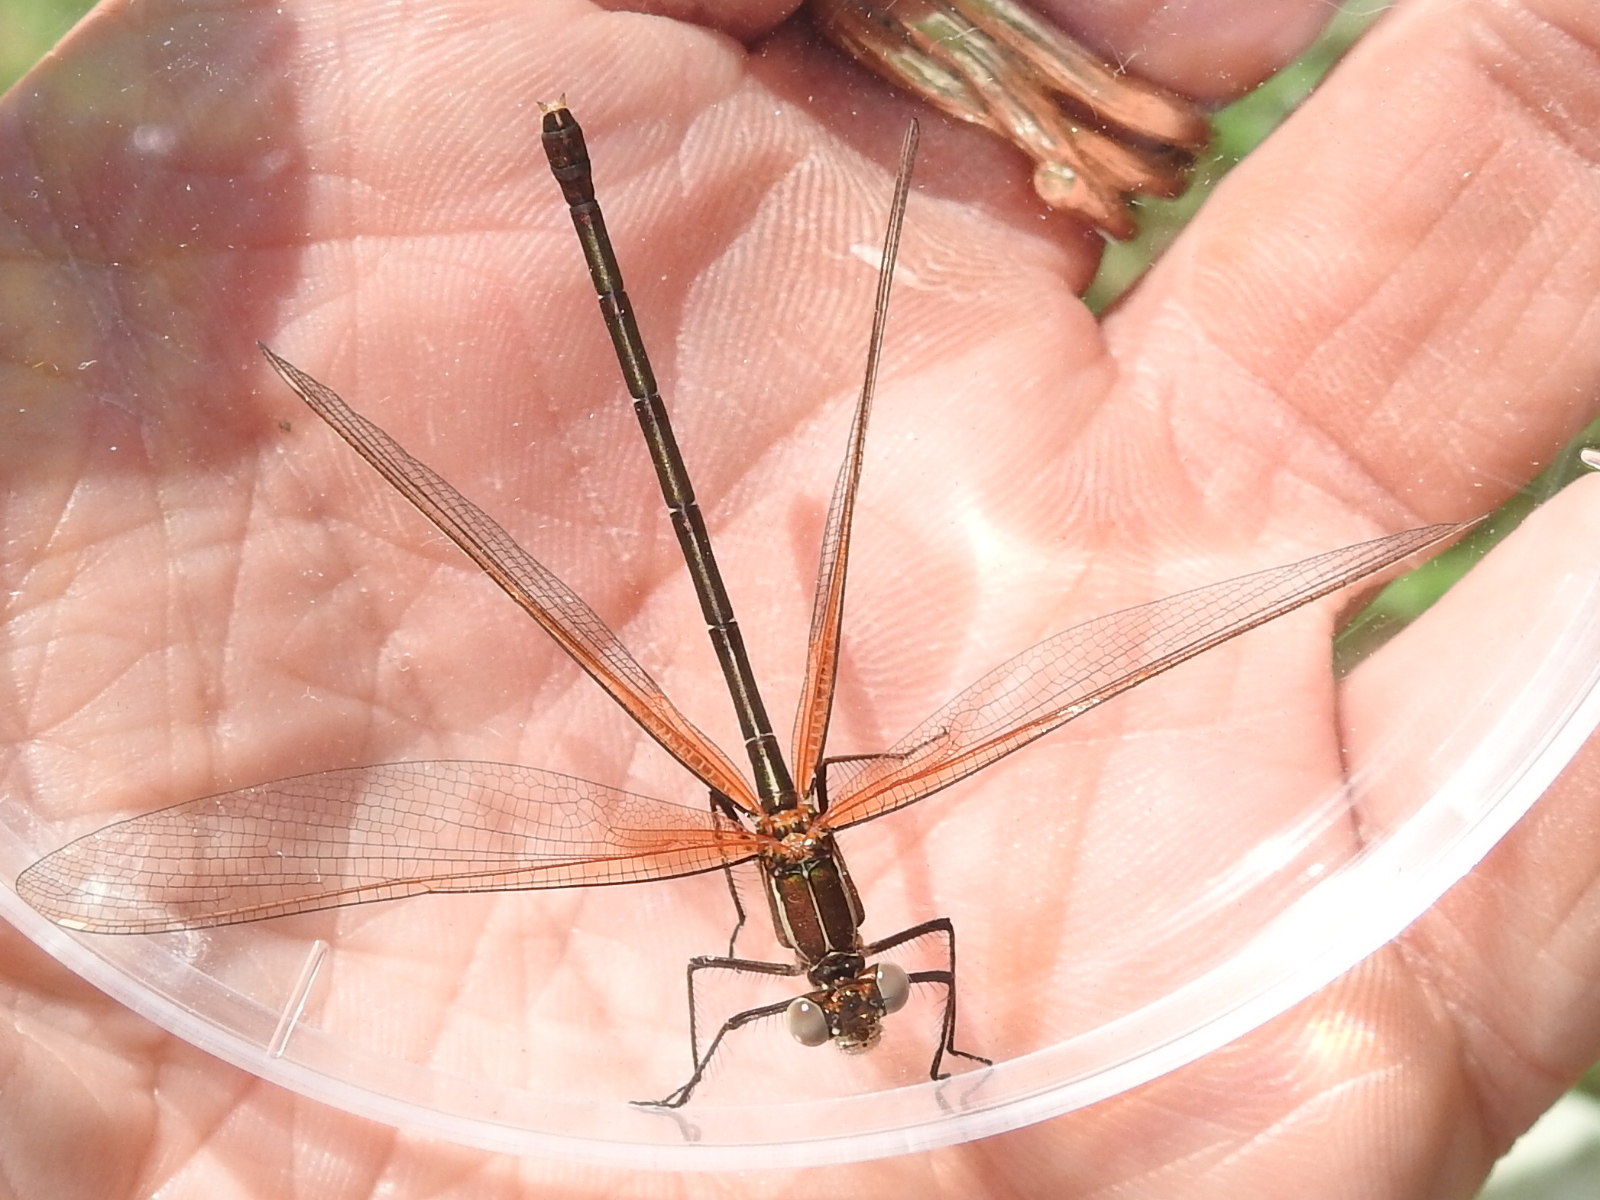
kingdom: Animalia
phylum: Arthropoda
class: Insecta
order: Odonata
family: Calopterygidae
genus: Hetaerina
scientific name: Hetaerina americana
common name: American rubyspot
